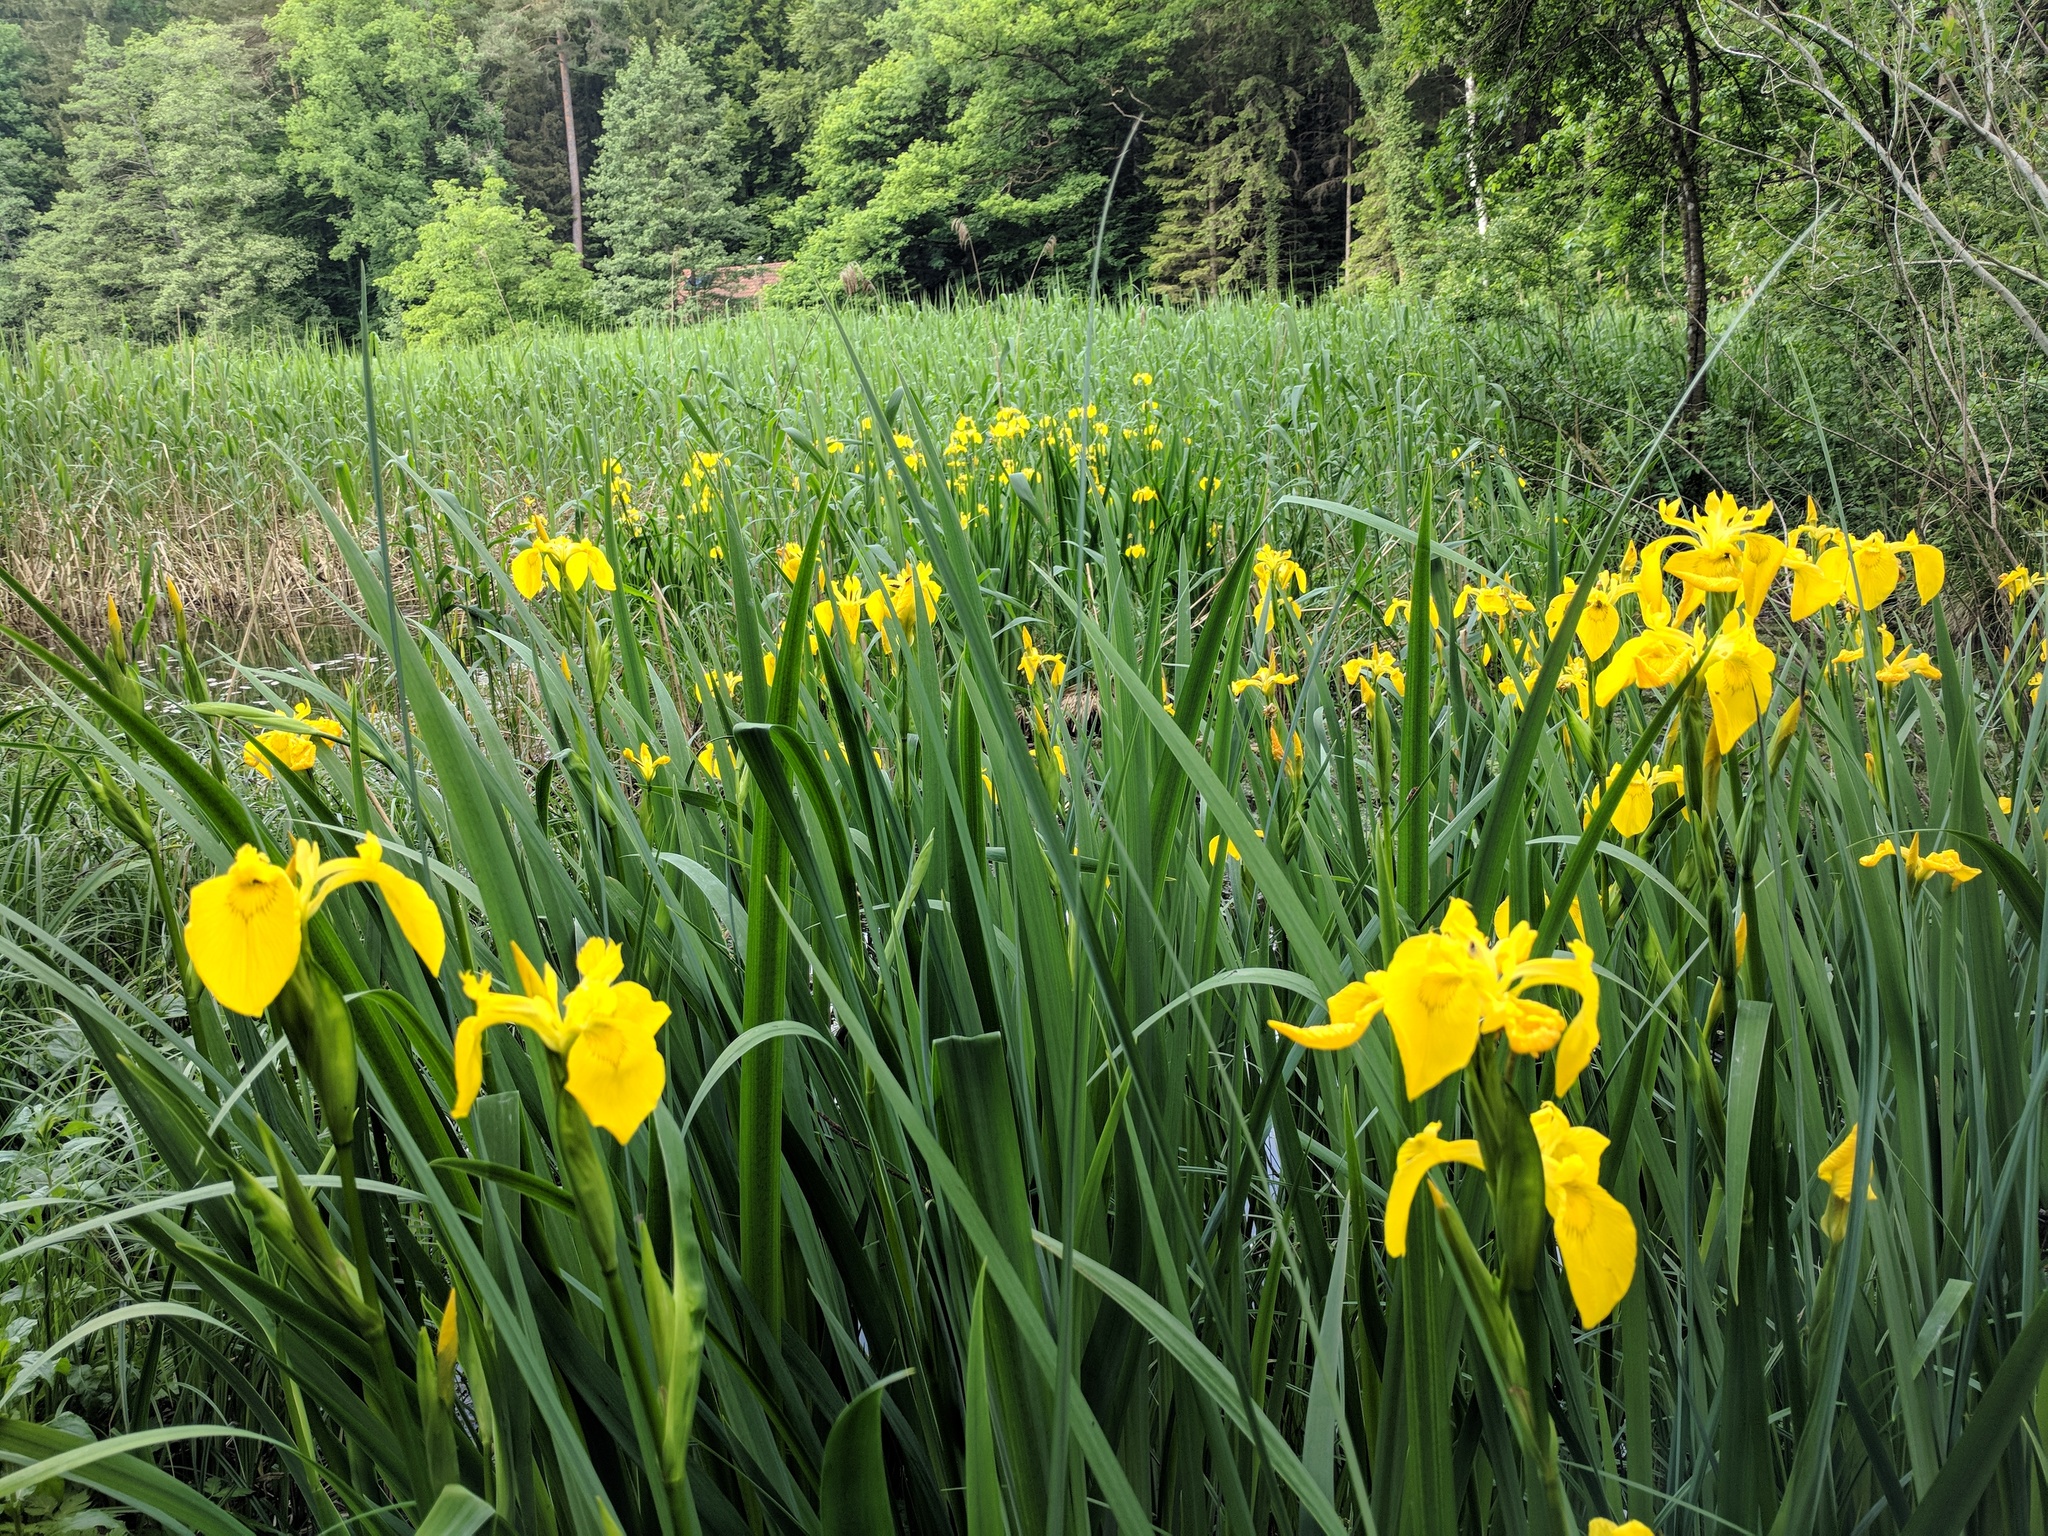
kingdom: Plantae
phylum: Tracheophyta
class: Liliopsida
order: Asparagales
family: Iridaceae
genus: Iris
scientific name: Iris pseudacorus
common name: Yellow flag
